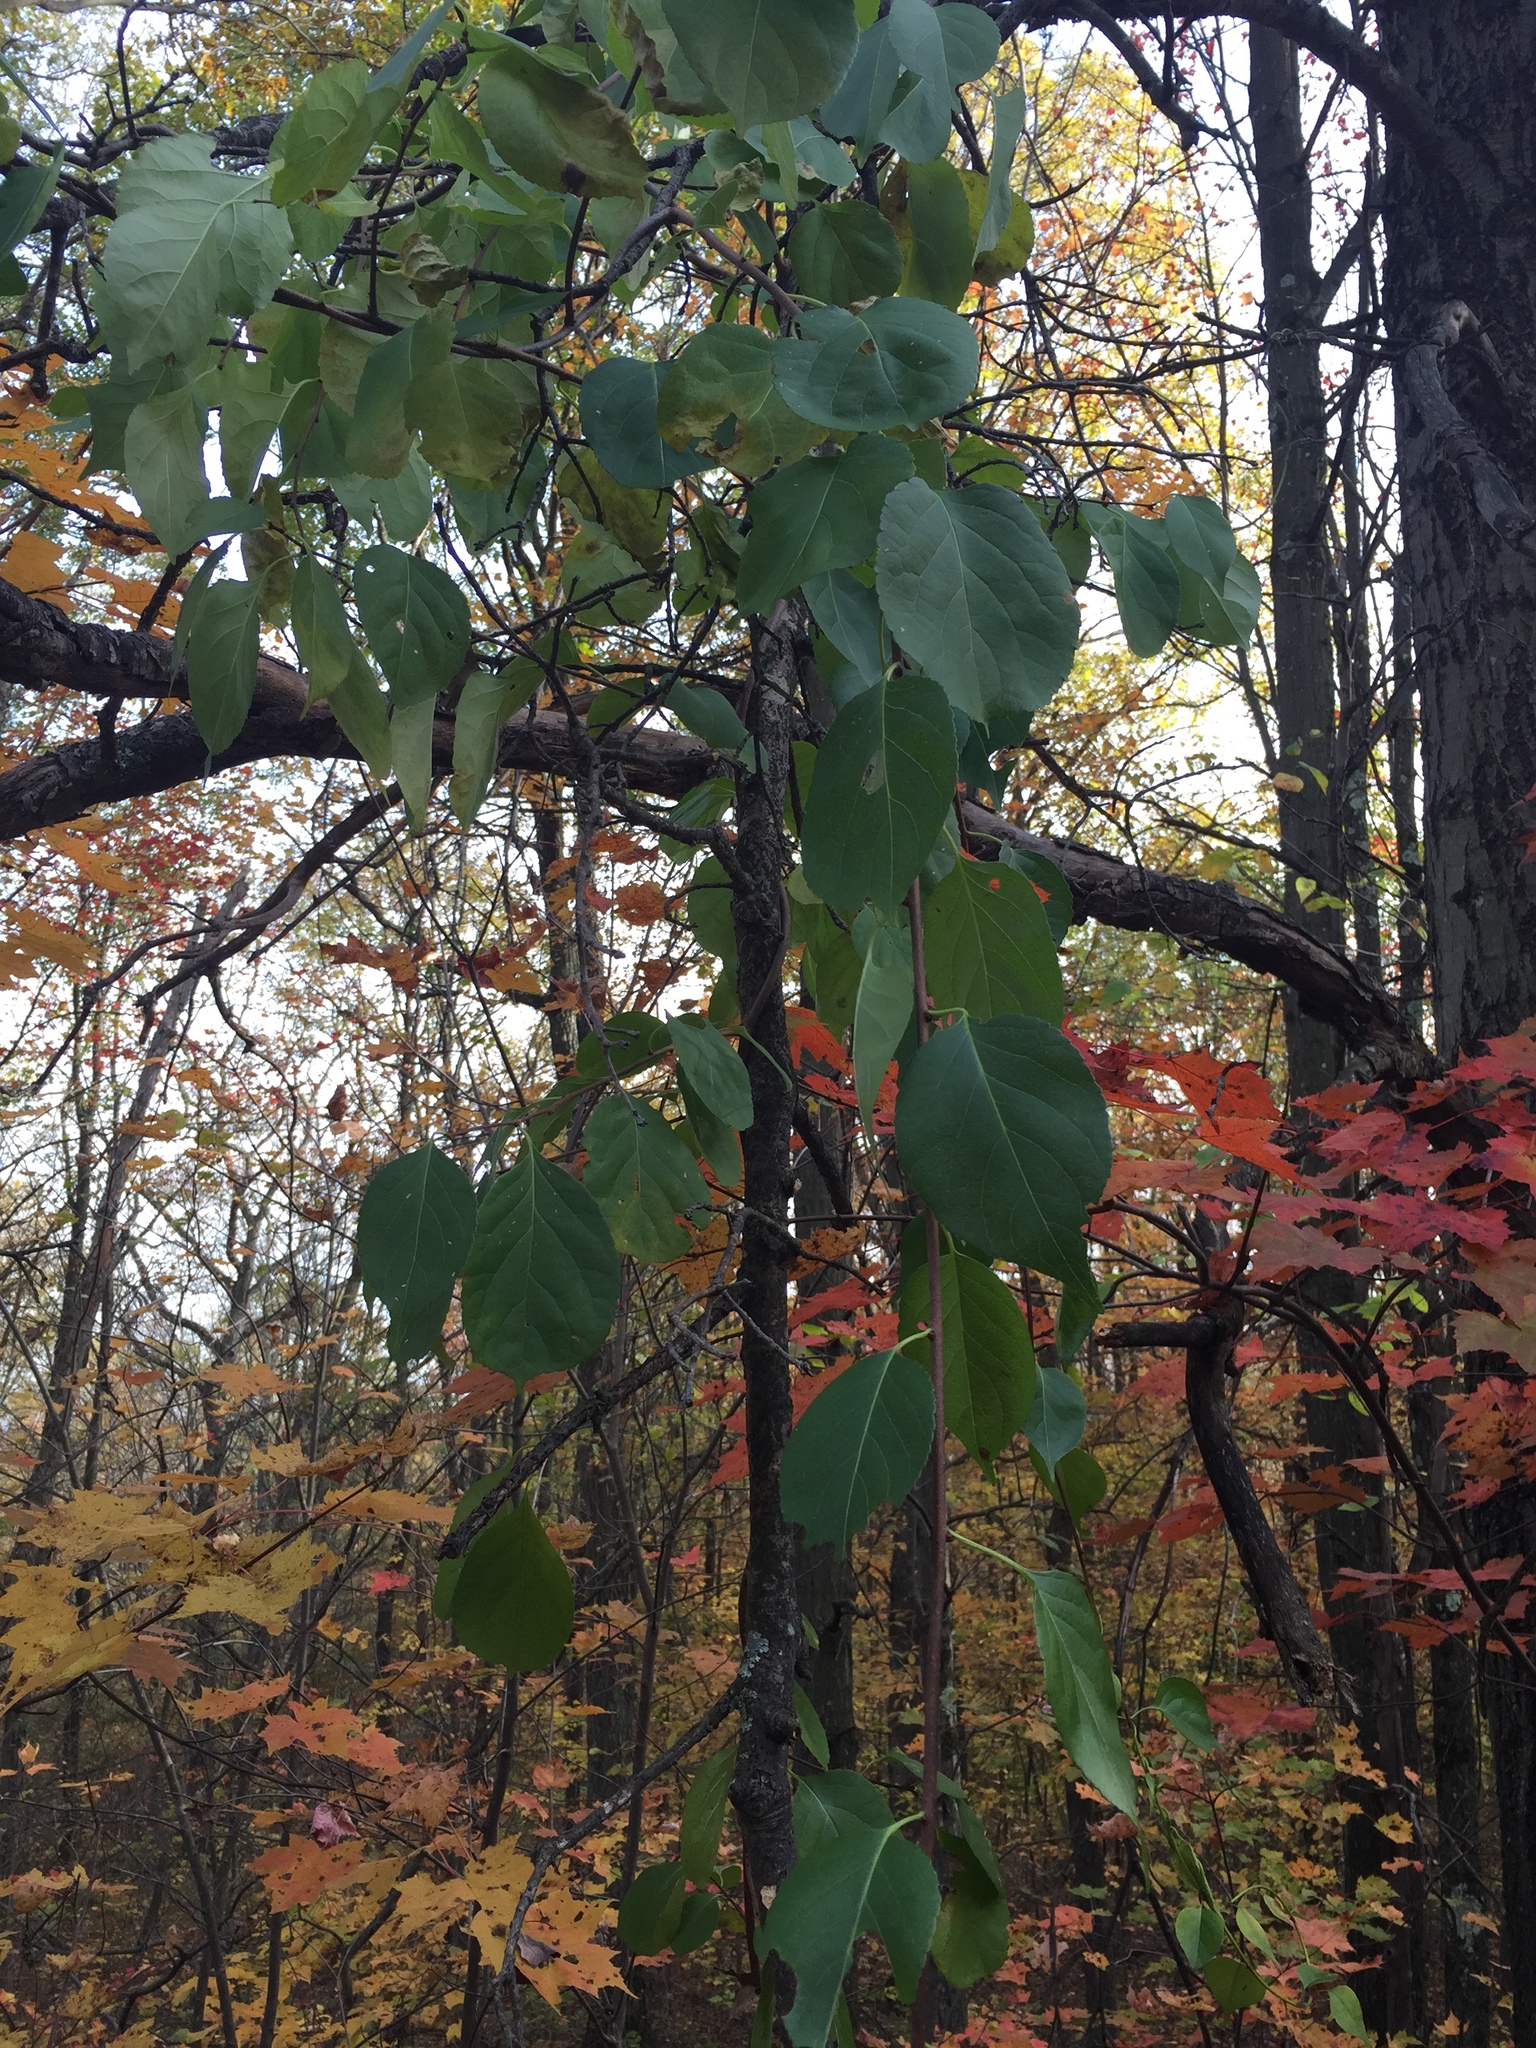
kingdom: Plantae
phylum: Tracheophyta
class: Magnoliopsida
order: Celastrales
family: Celastraceae
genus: Celastrus
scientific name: Celastrus orbiculatus
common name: Oriental bittersweet
